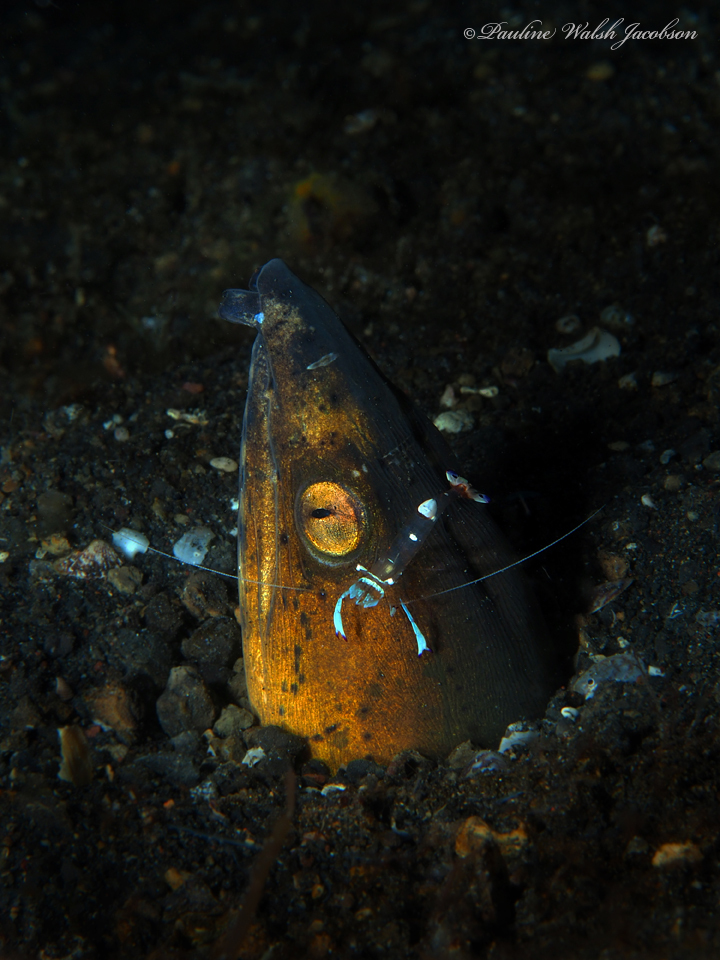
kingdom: Animalia
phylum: Chordata
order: Anguilliformes
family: Ophichthidae
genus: Ophichthus
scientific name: Ophichthus altipennis
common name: Highfin snake eel
